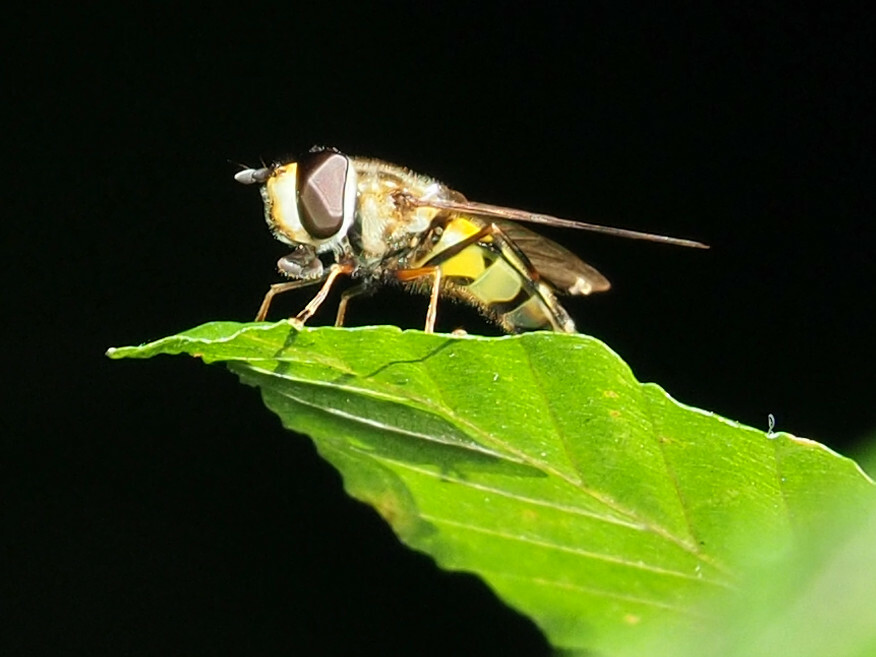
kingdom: Animalia
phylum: Arthropoda
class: Insecta
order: Diptera
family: Syrphidae
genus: Didea
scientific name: Didea fuscipes
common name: Undivided lucent
